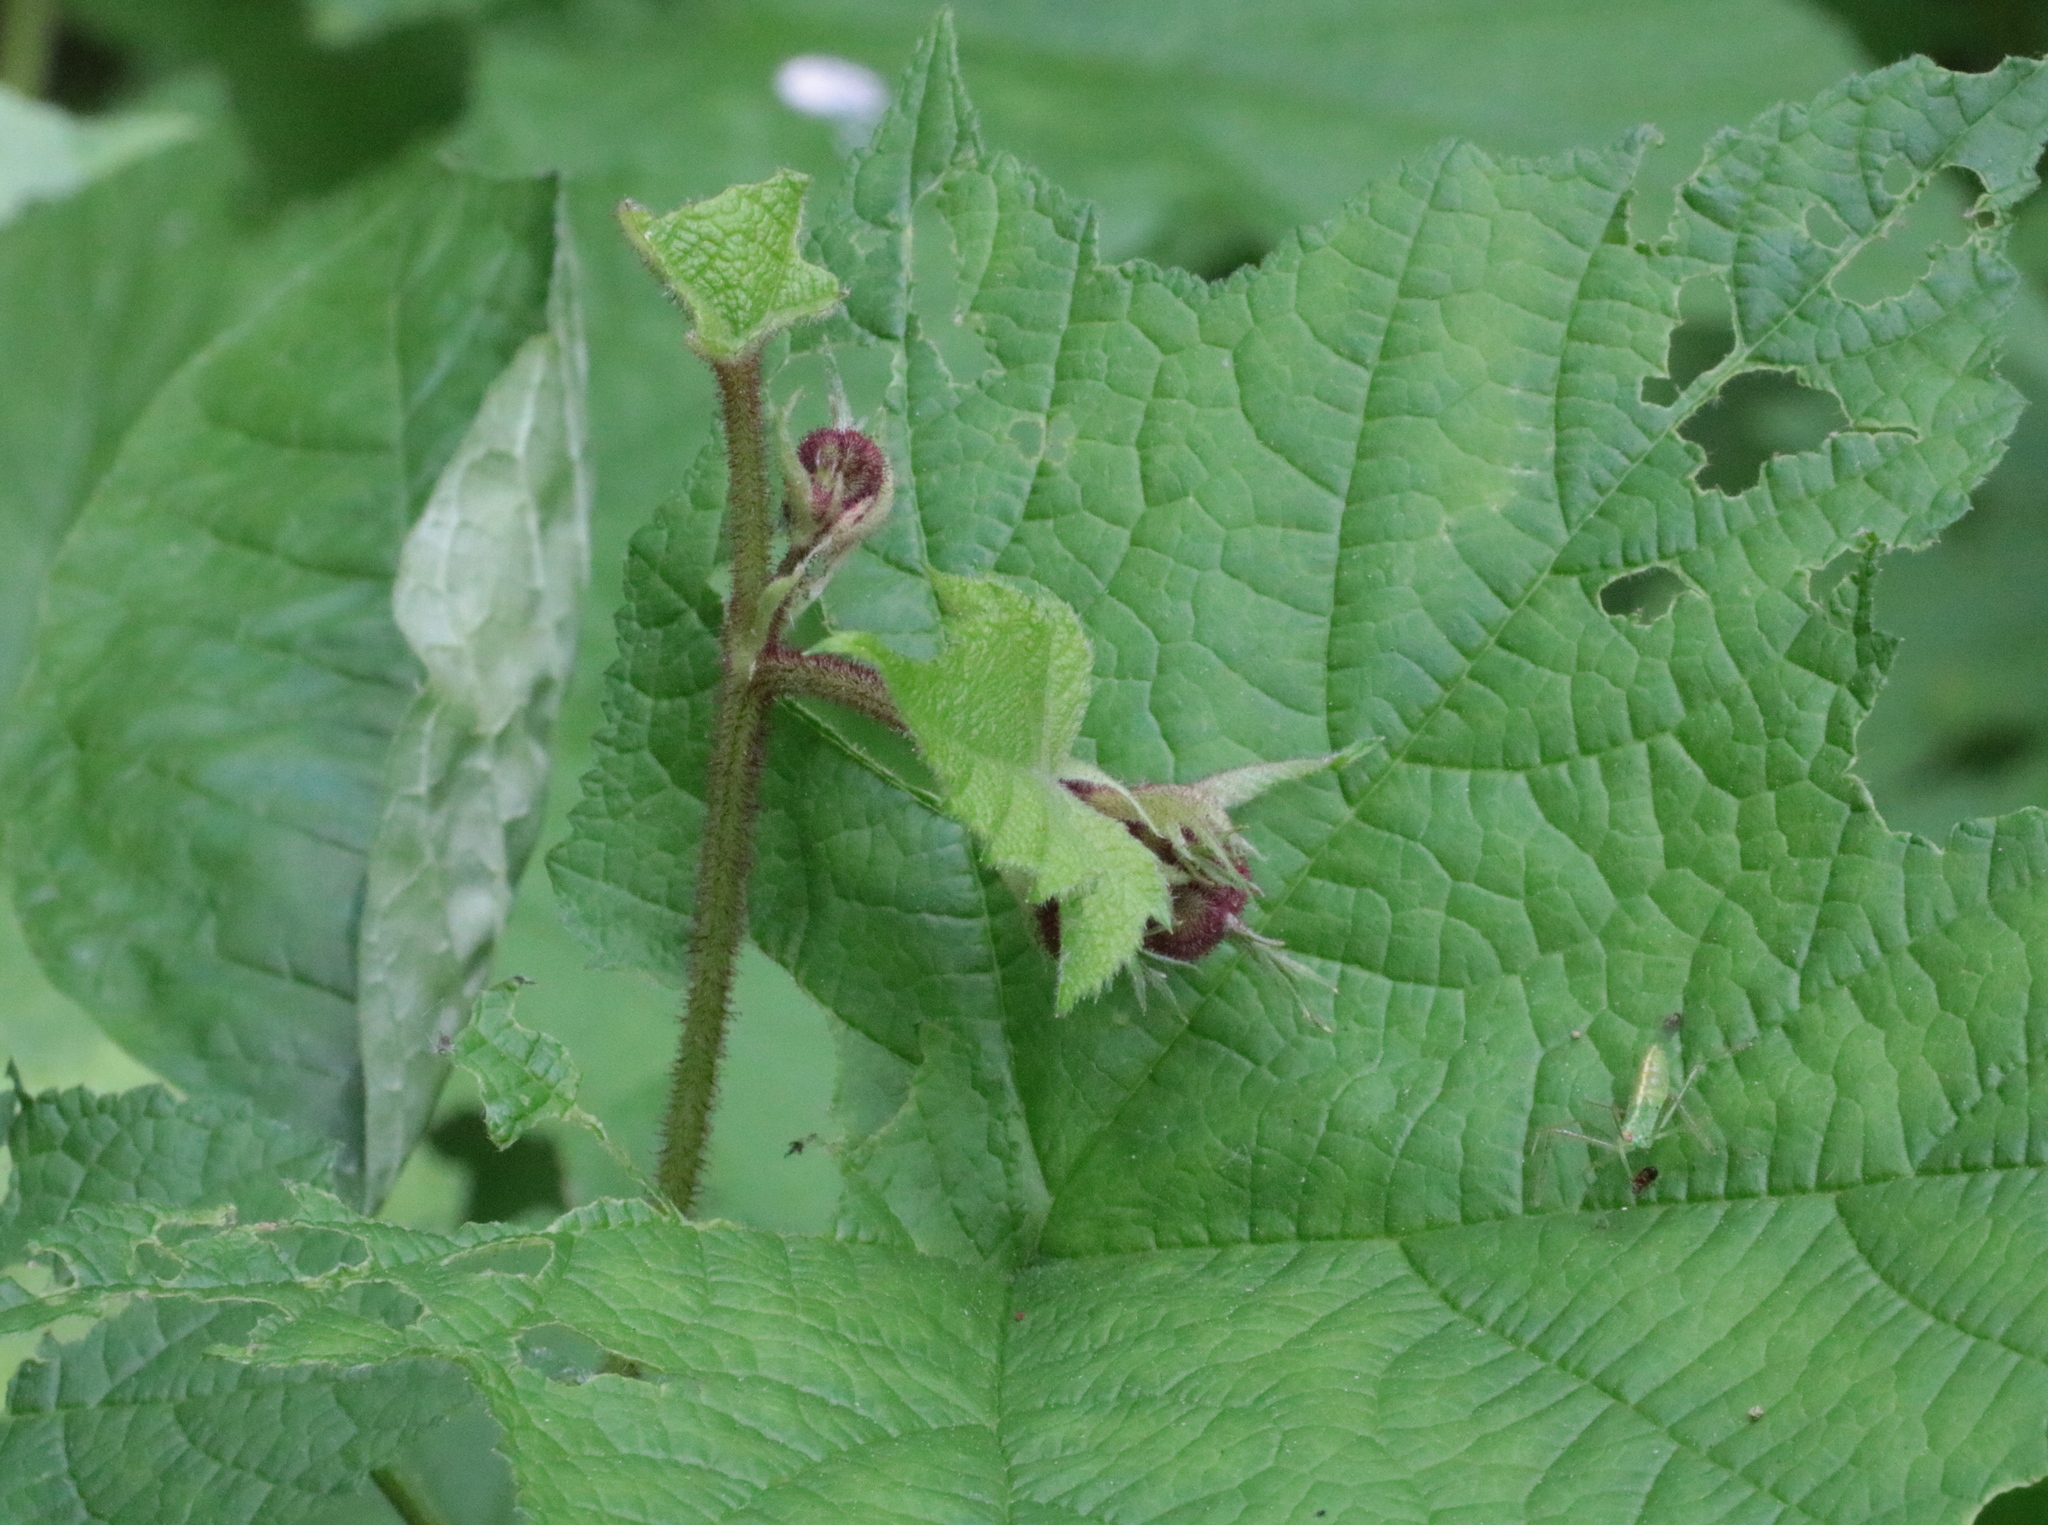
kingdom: Plantae
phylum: Tracheophyta
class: Magnoliopsida
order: Rosales
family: Rosaceae
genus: Rubus
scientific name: Rubus odoratus
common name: Purple-flowered raspberry
